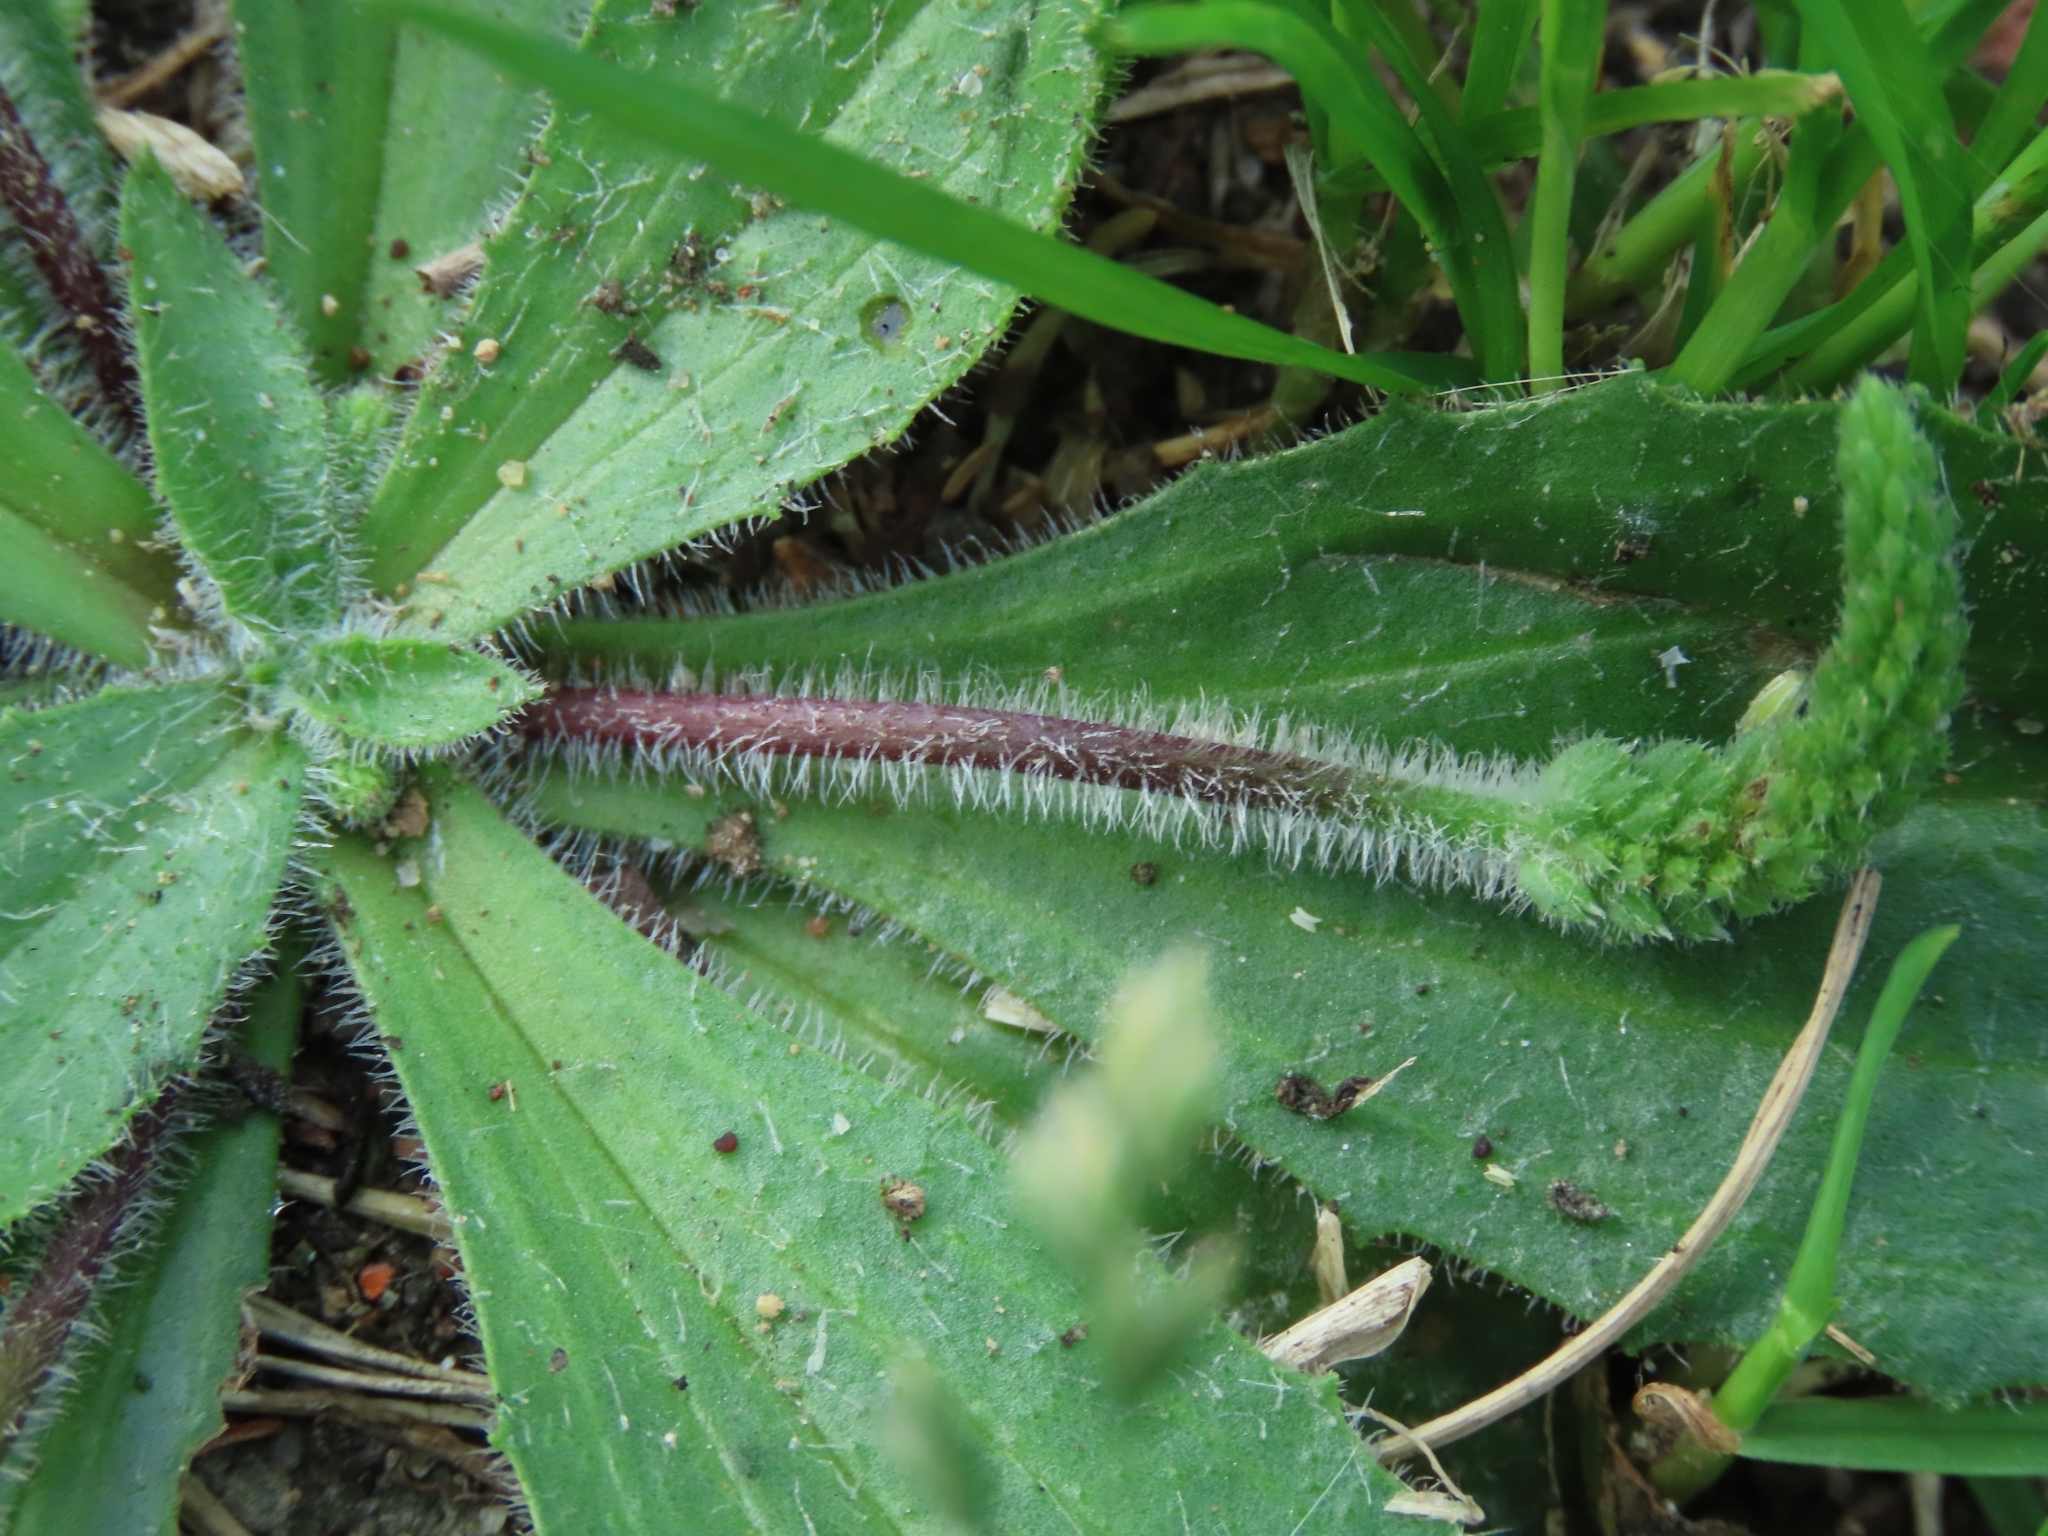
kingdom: Plantae
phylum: Tracheophyta
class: Magnoliopsida
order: Lamiales
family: Plantaginaceae
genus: Plantago
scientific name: Plantago virginica
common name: Hoary plantain
